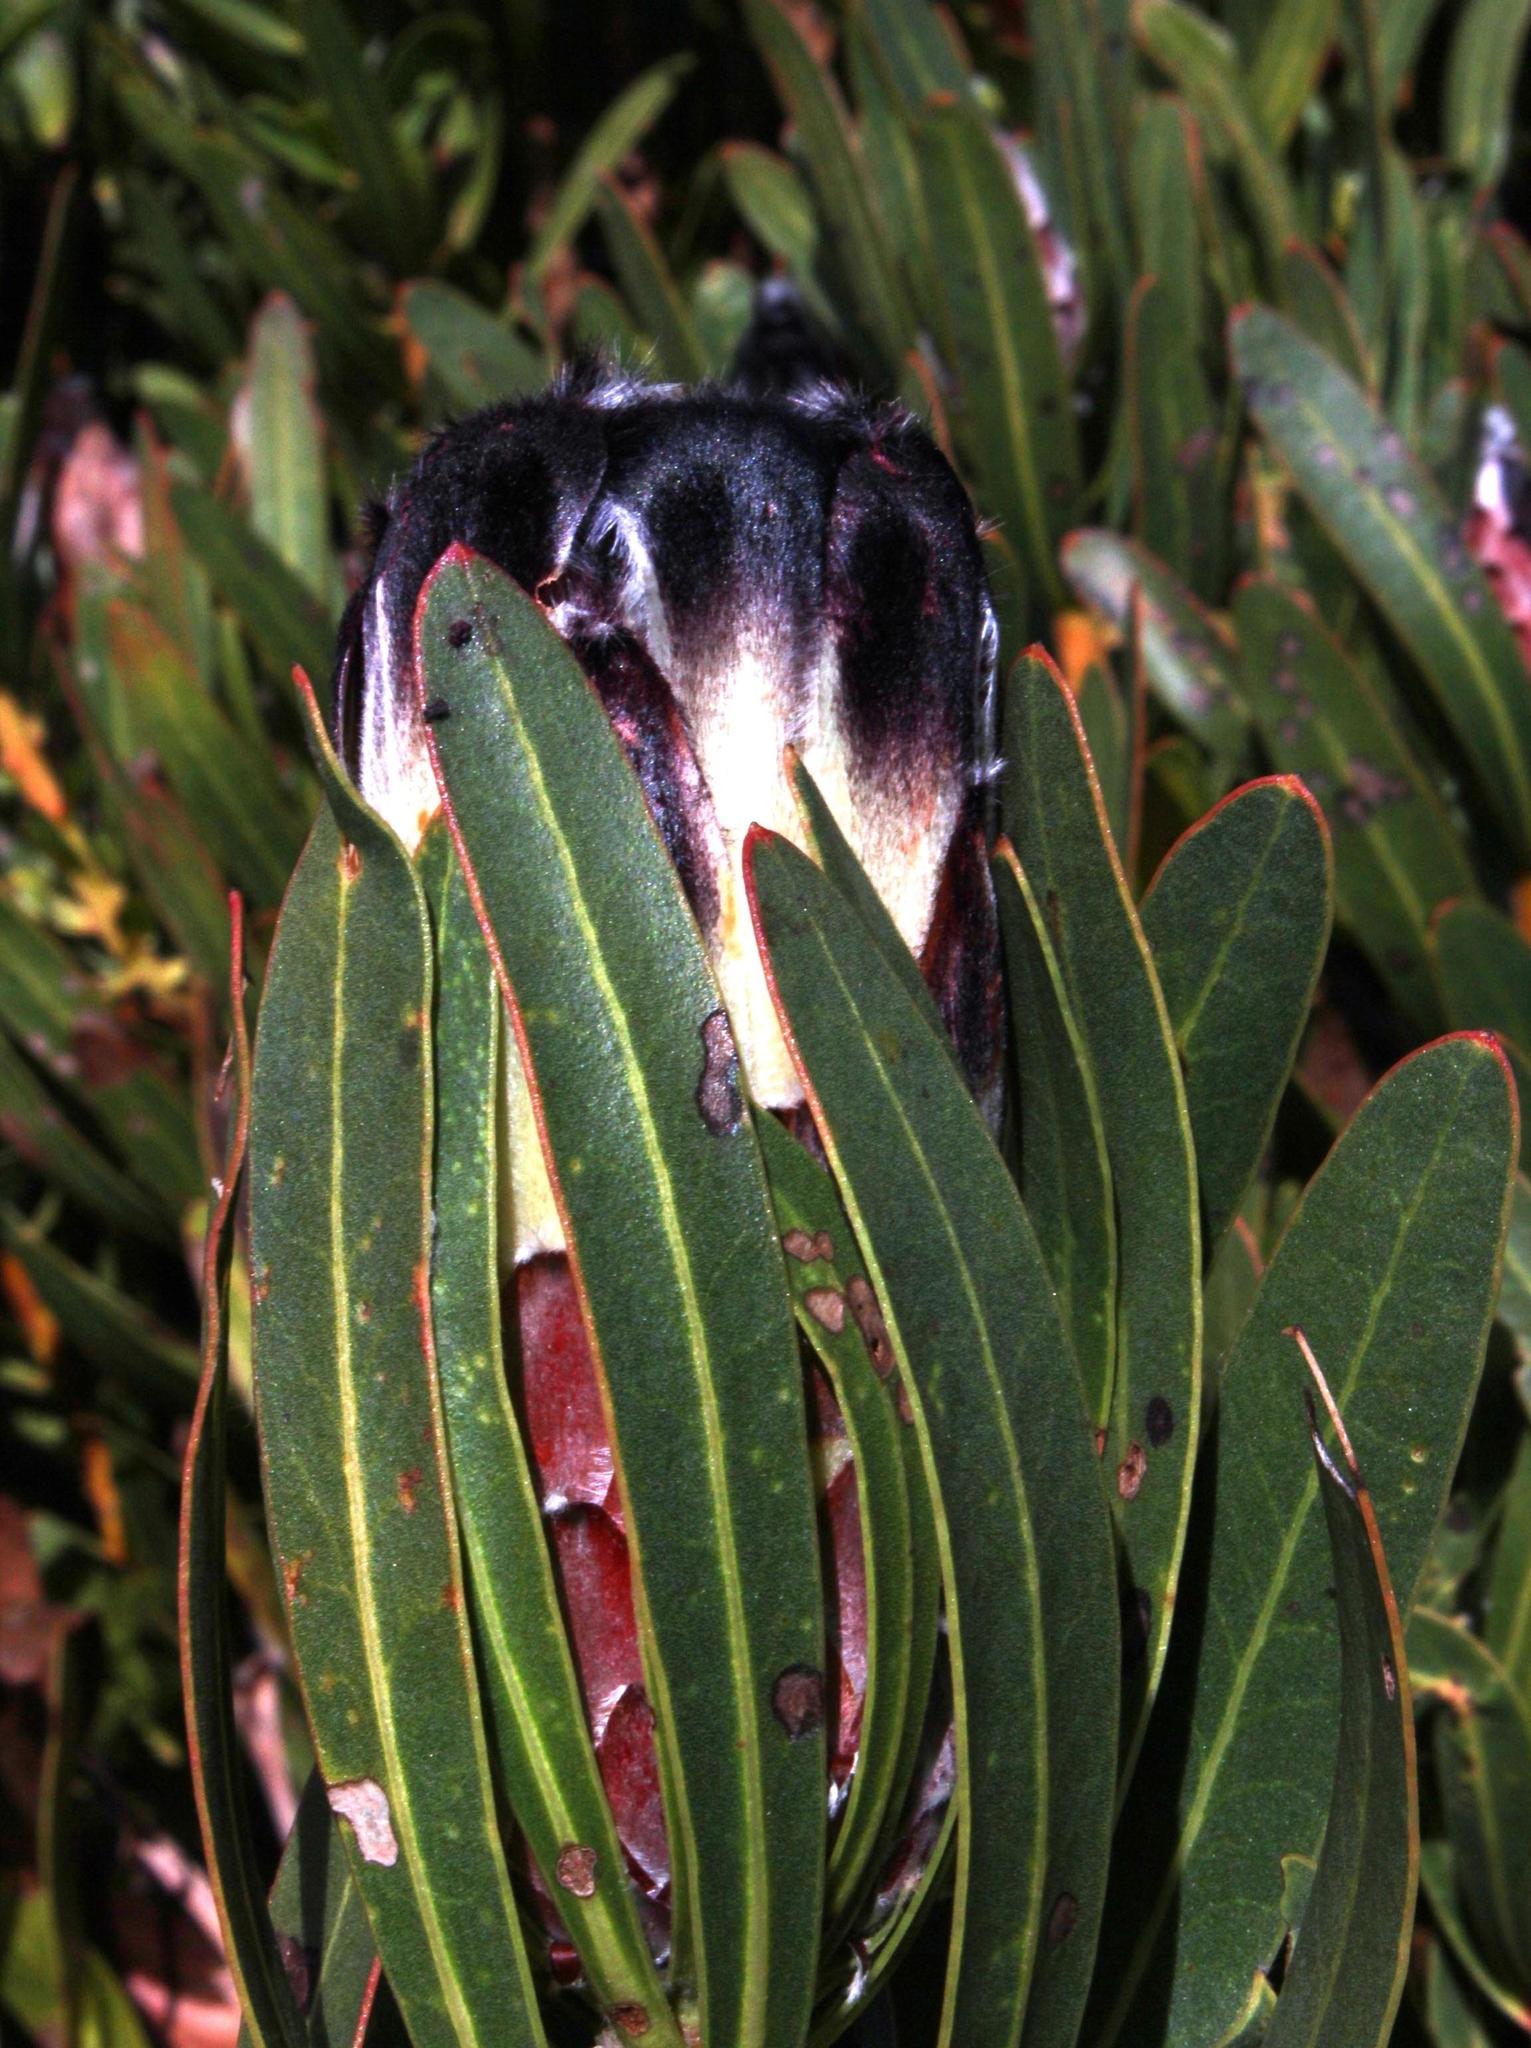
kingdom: Plantae
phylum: Tracheophyta
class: Magnoliopsida
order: Proteales
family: Proteaceae
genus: Protea
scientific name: Protea lepidocarpodendron
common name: Black-bearded protea
